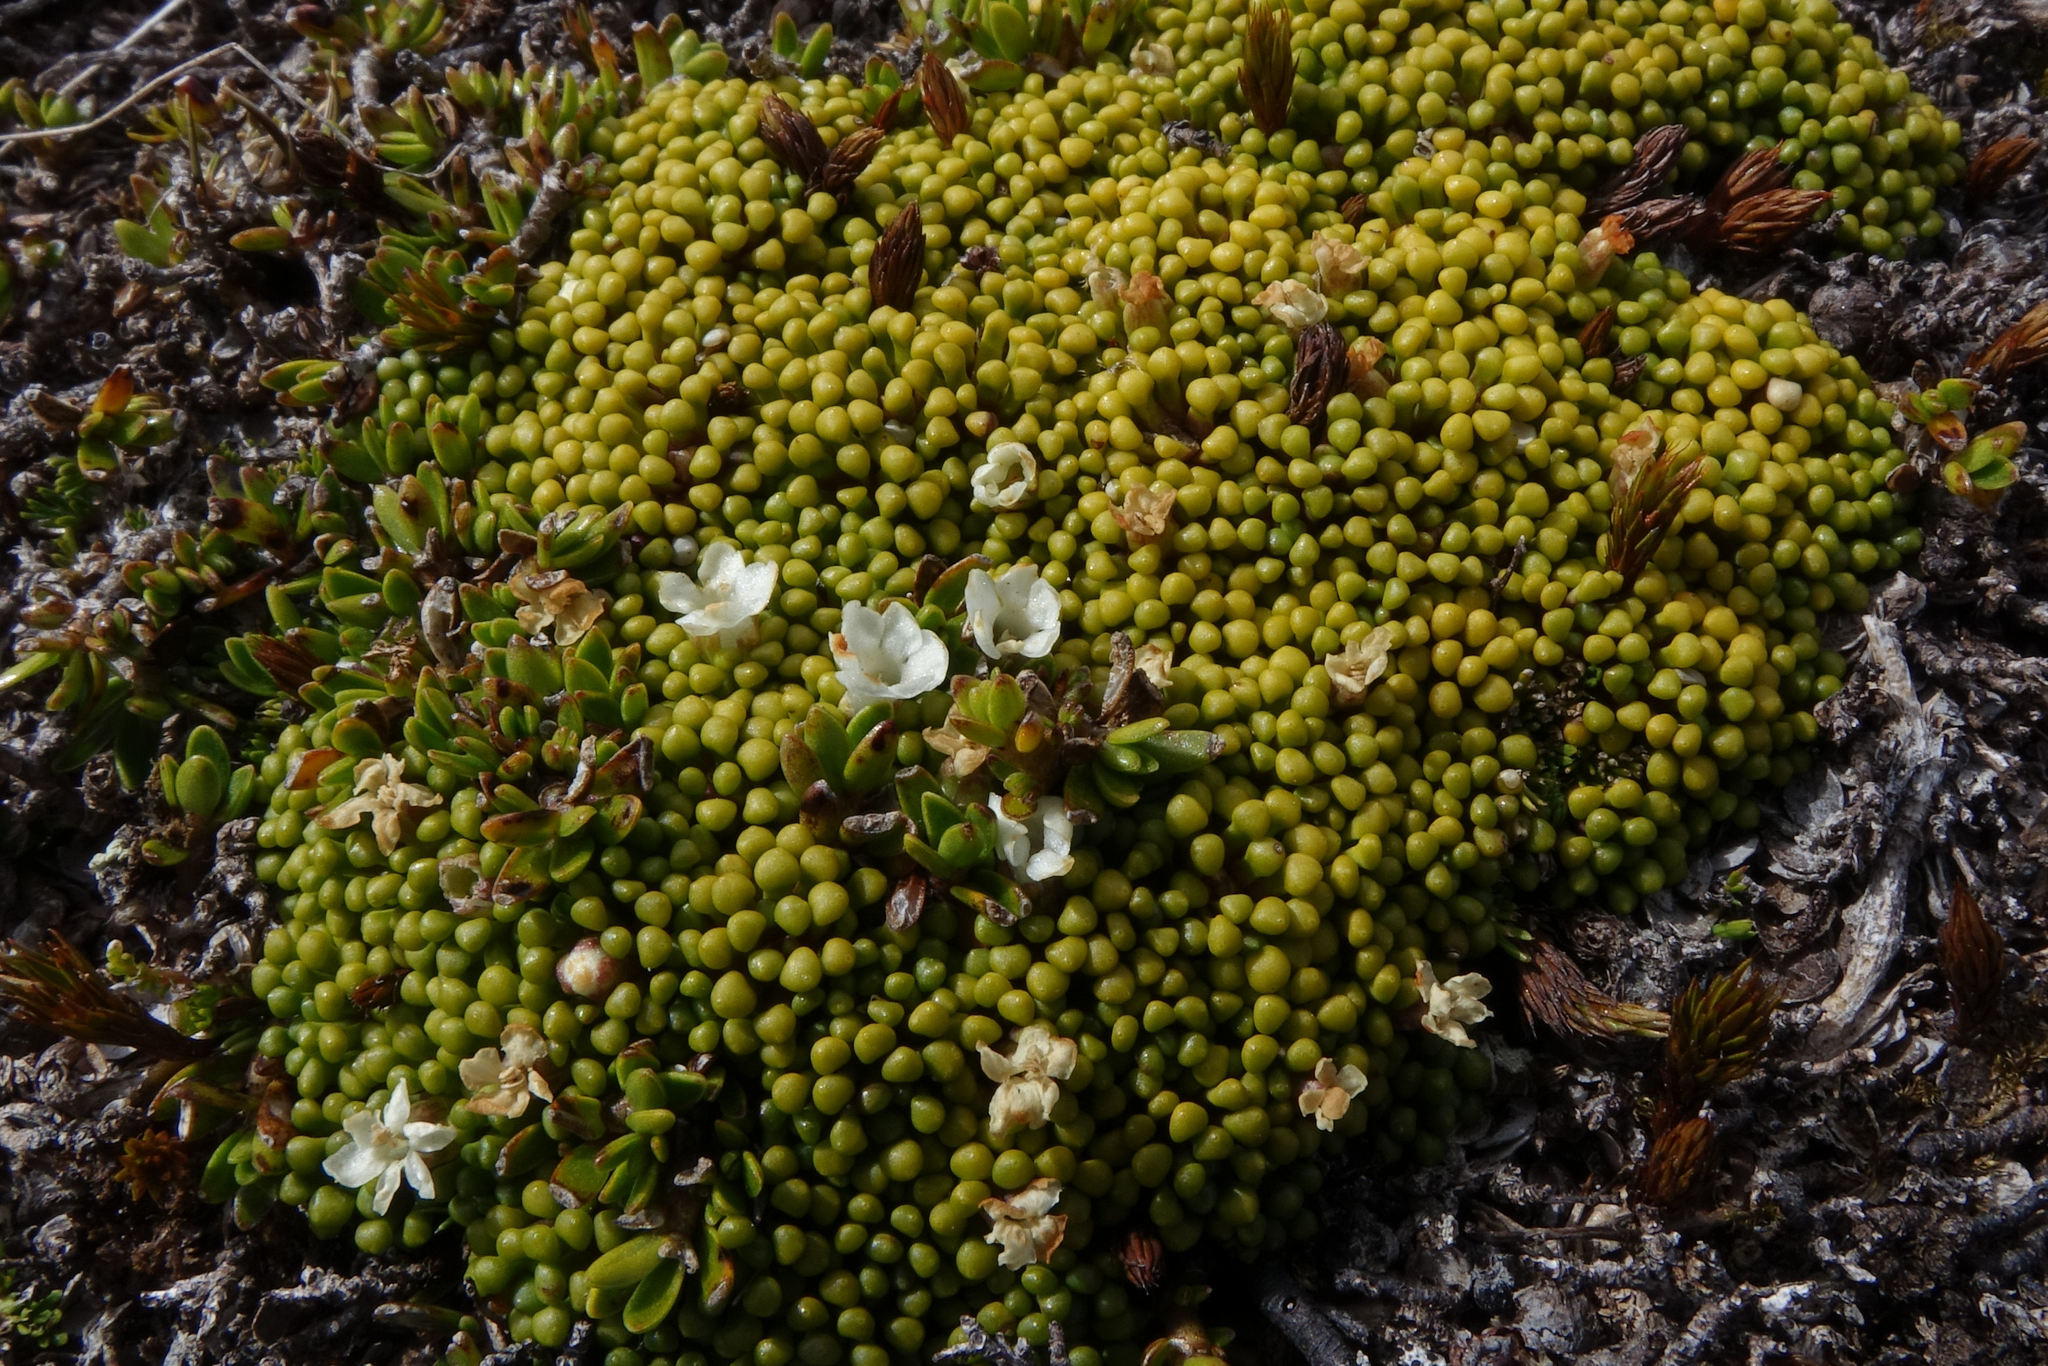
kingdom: Plantae
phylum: Tracheophyta
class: Magnoliopsida
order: Asterales
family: Stylidiaceae
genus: Phyllachne
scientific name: Phyllachne rubra
